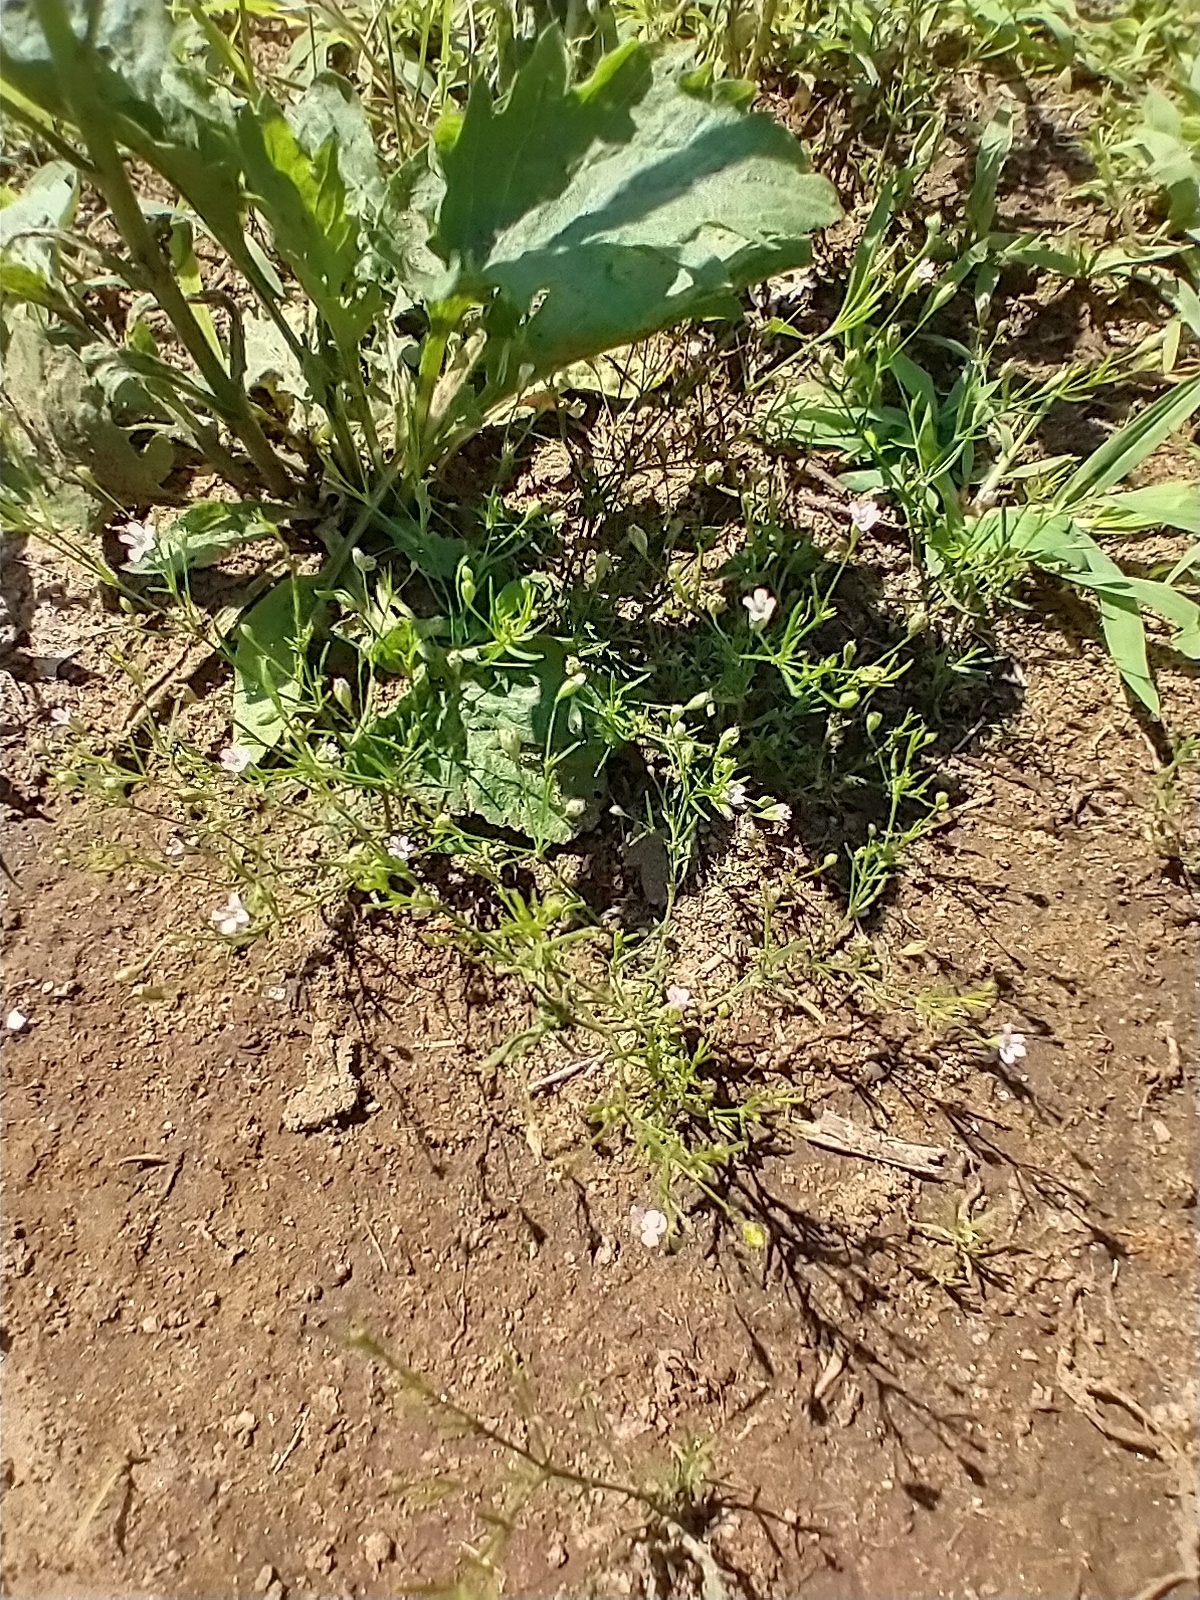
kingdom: Plantae
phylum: Tracheophyta
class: Magnoliopsida
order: Caryophyllales
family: Caryophyllaceae
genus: Psammophiliella
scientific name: Psammophiliella muralis
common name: Cushion baby's-breath
